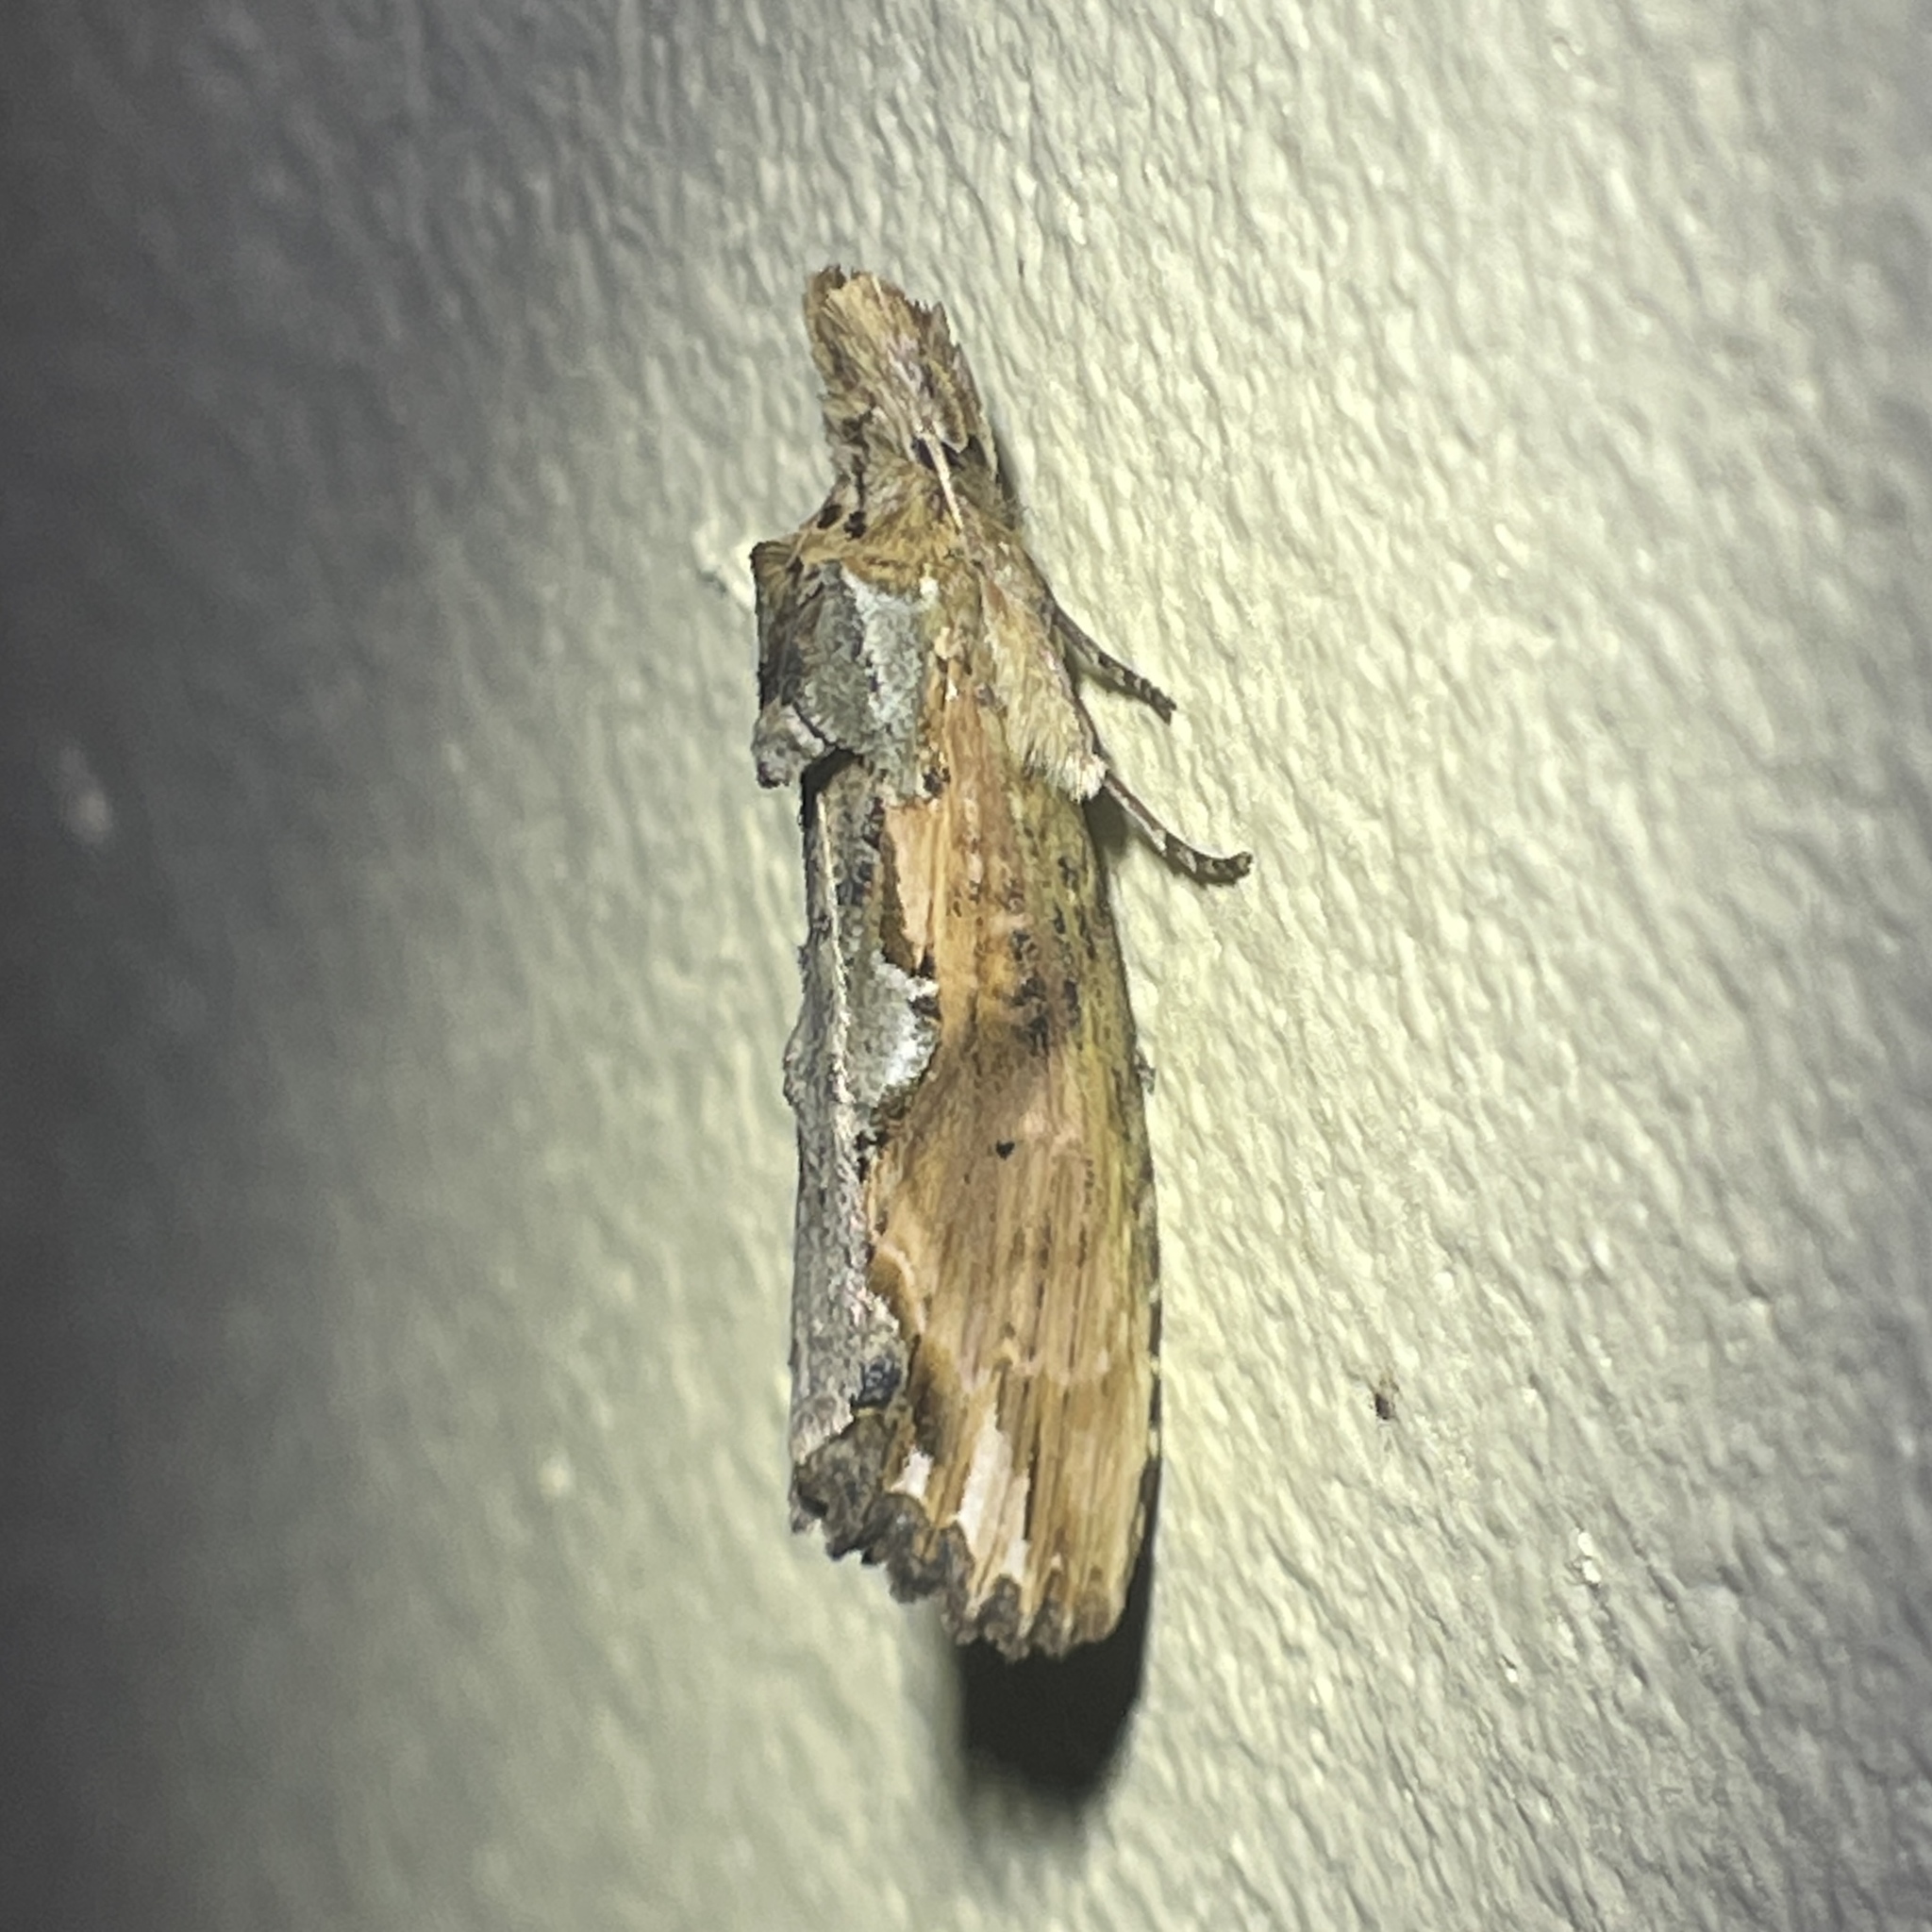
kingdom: Animalia
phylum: Arthropoda
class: Insecta
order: Lepidoptera
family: Notodontidae
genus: Nycterotis
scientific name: Nycterotis
